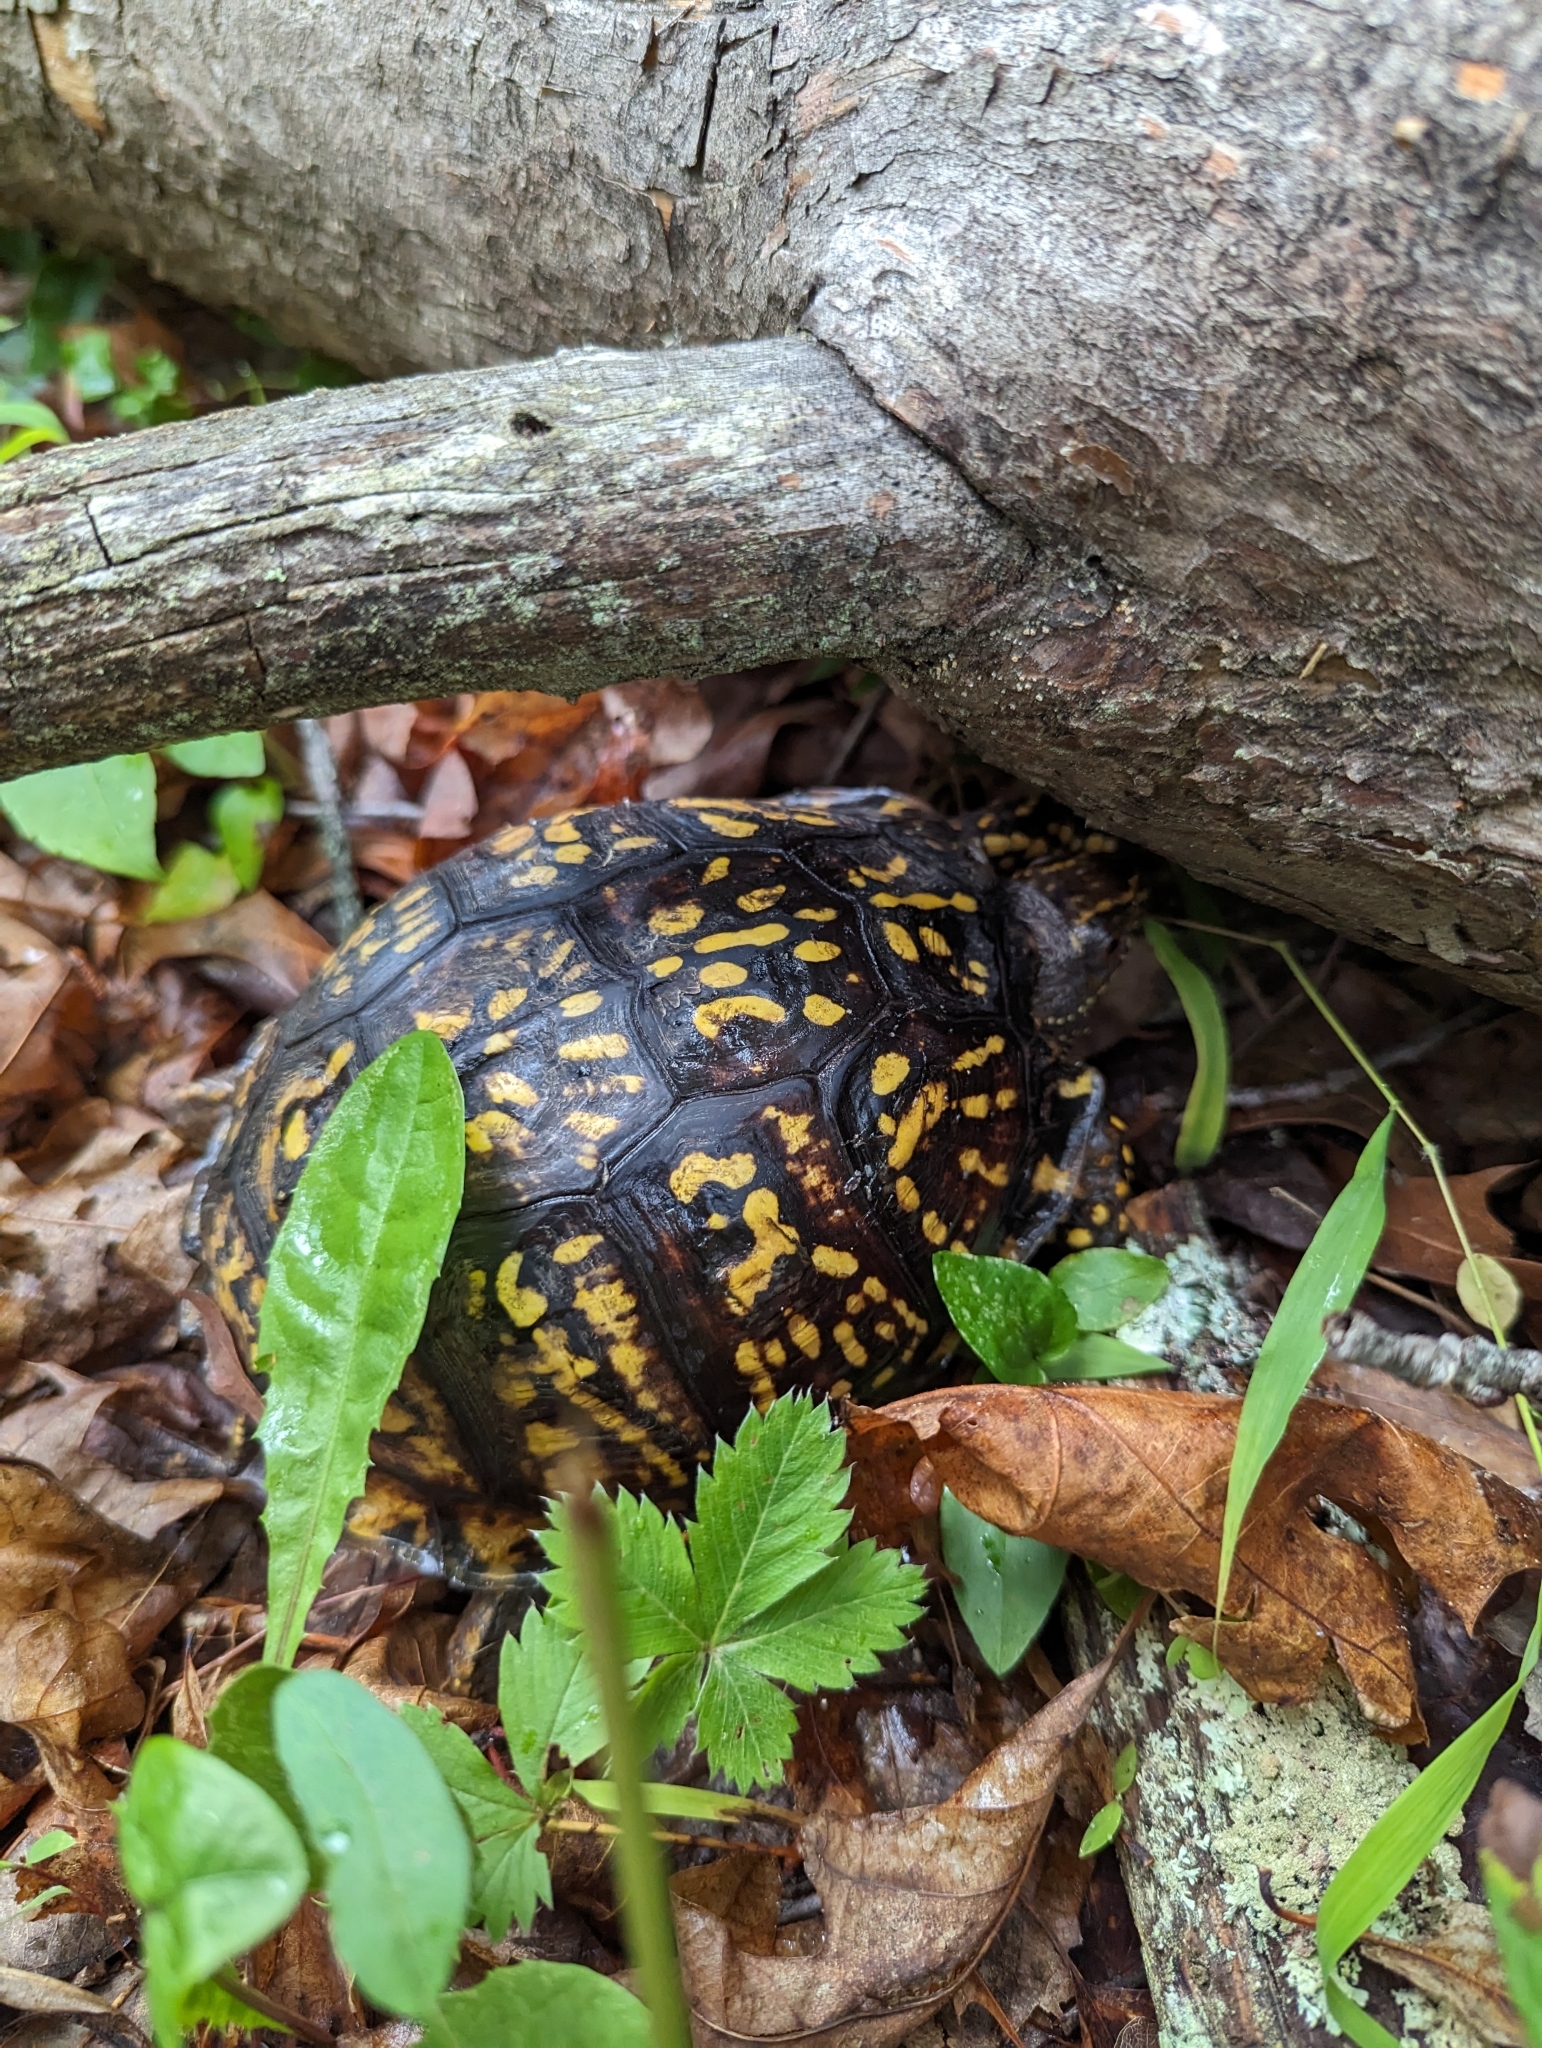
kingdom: Animalia
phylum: Chordata
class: Testudines
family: Emydidae
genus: Terrapene
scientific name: Terrapene carolina
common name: Common box turtle
